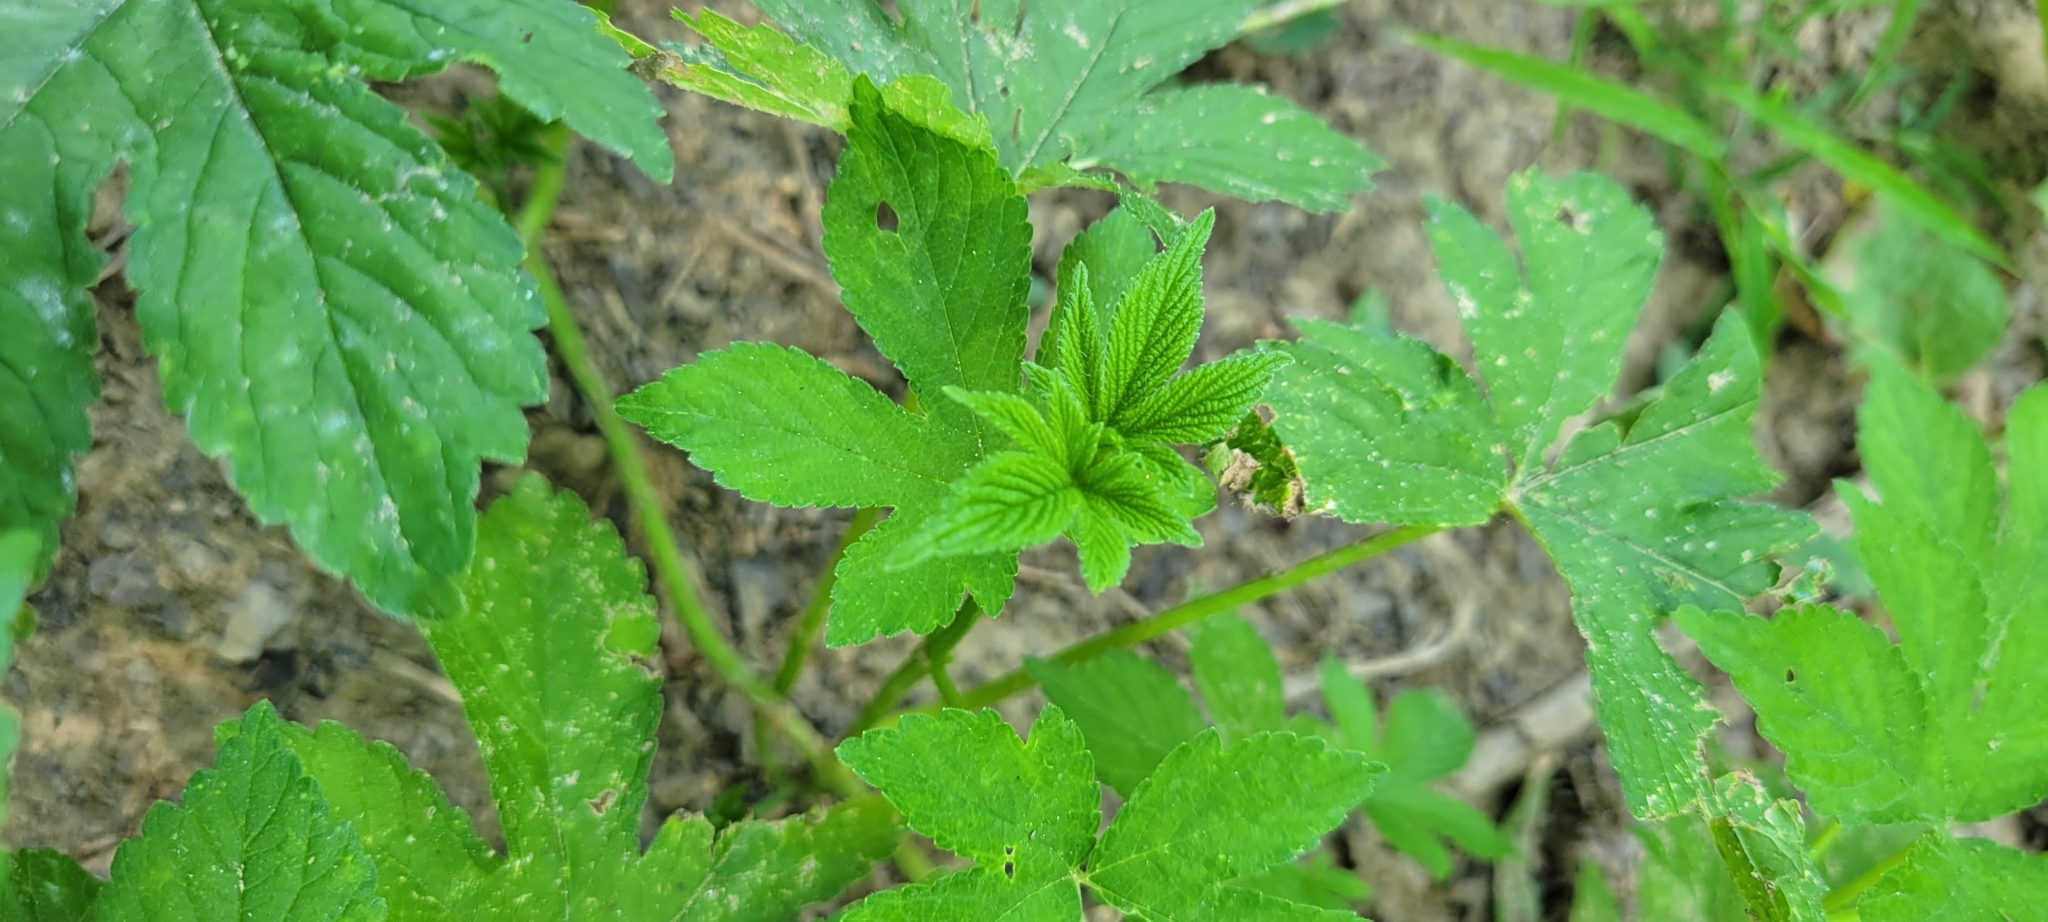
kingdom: Plantae
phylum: Tracheophyta
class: Magnoliopsida
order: Rosales
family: Cannabaceae
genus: Humulus
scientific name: Humulus scandens
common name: Japanese hop
